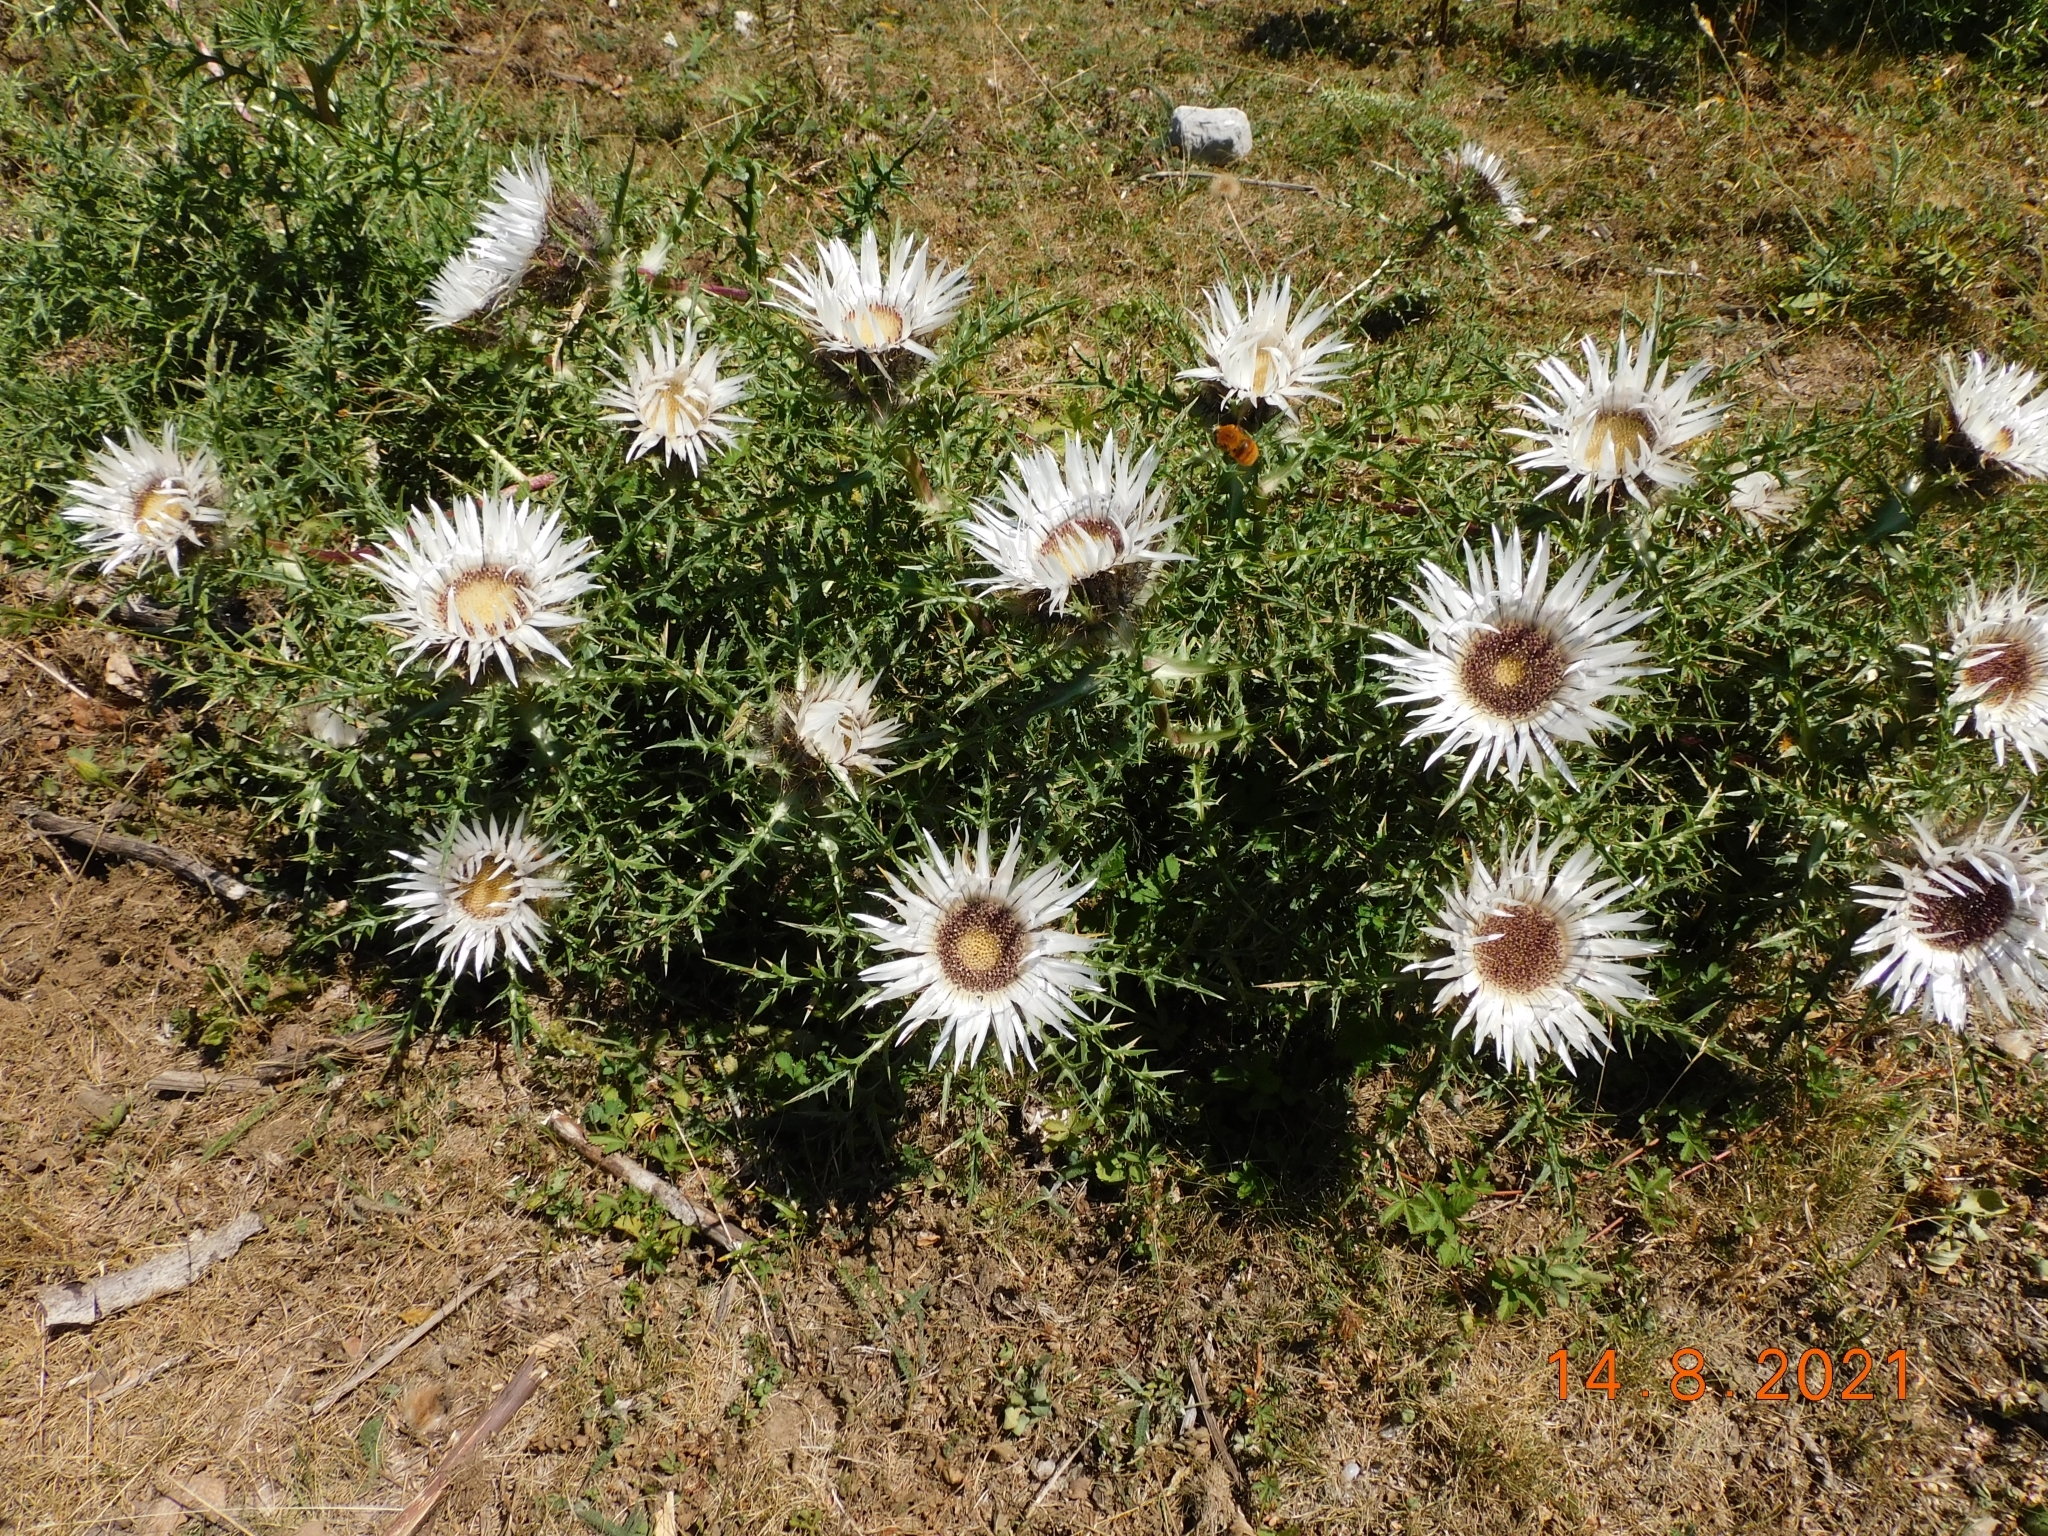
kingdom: Plantae
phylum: Tracheophyta
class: Magnoliopsida
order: Asterales
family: Asteraceae
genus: Carlina
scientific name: Carlina acaulis
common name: Stemless carline thistle
